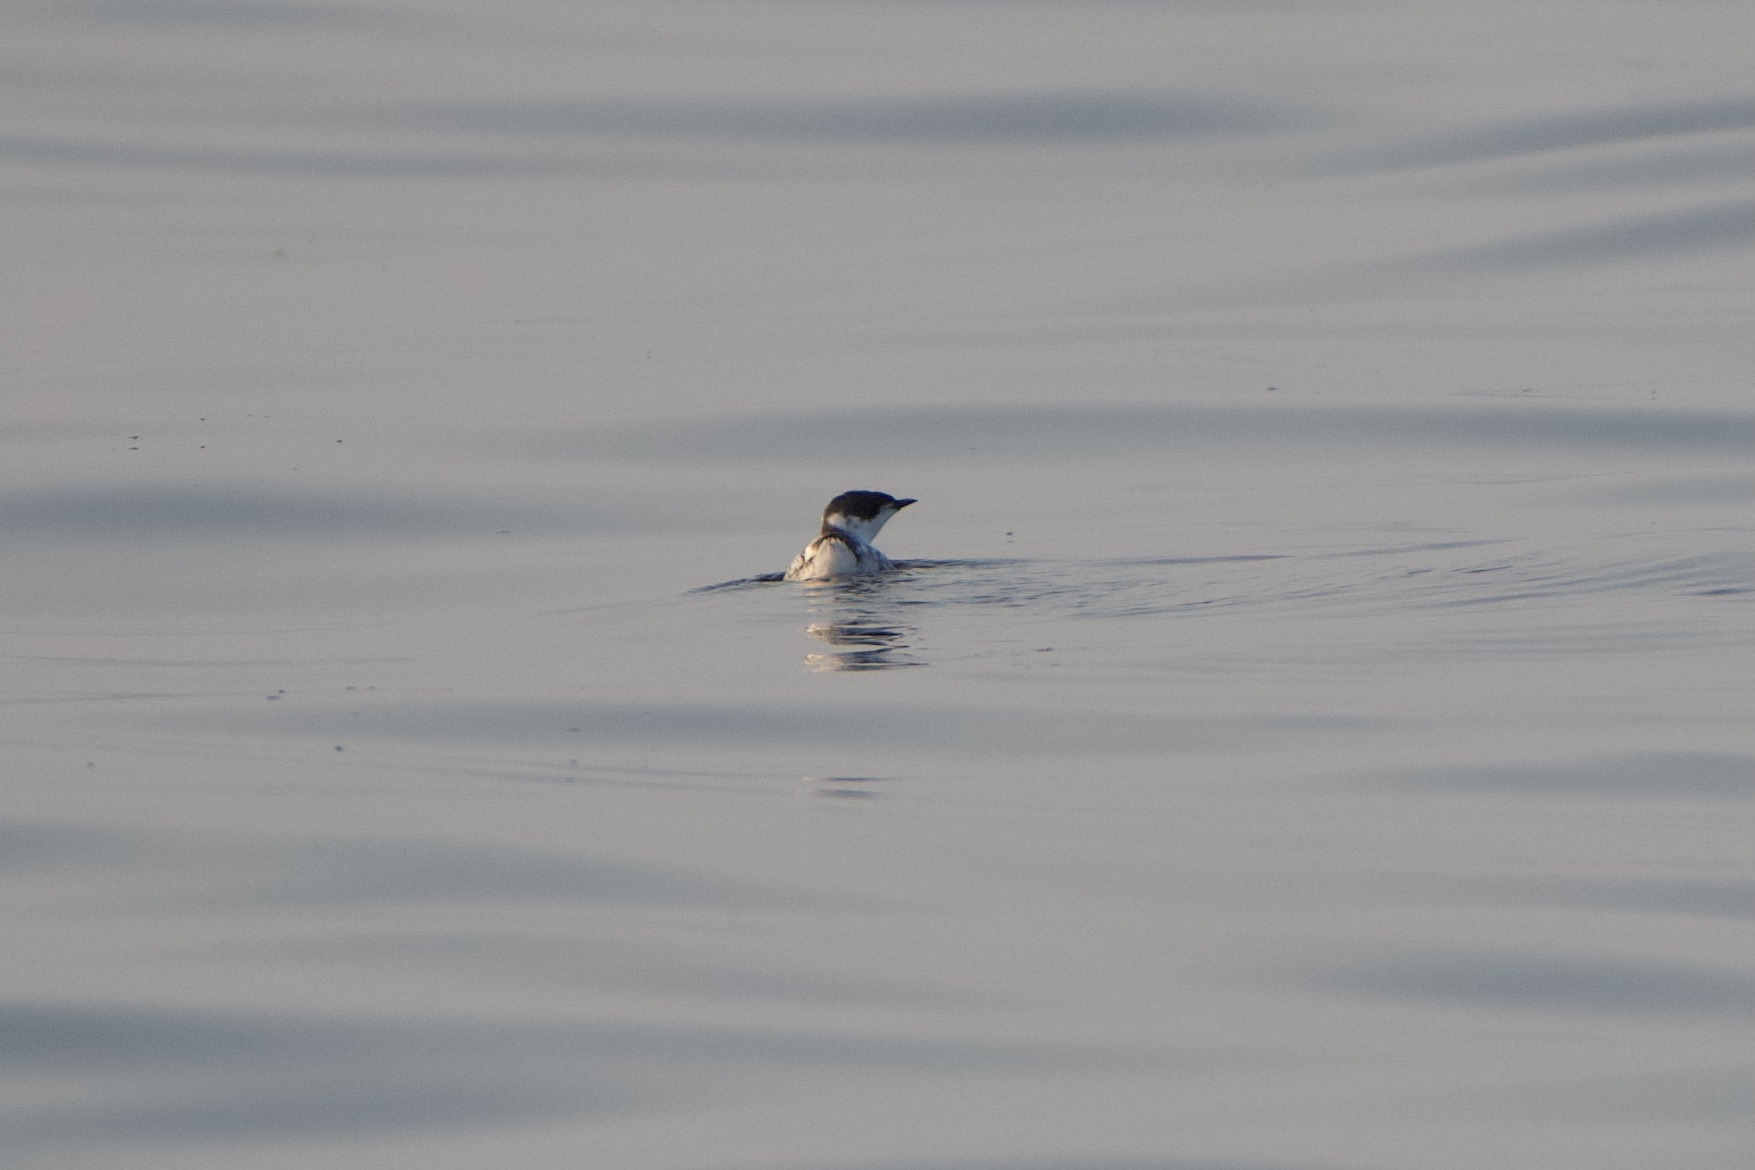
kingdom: Animalia
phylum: Chordata
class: Aves
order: Charadriiformes
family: Alcidae
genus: Brachyramphus
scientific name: Brachyramphus marmoratus
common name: Marbled murrelet
